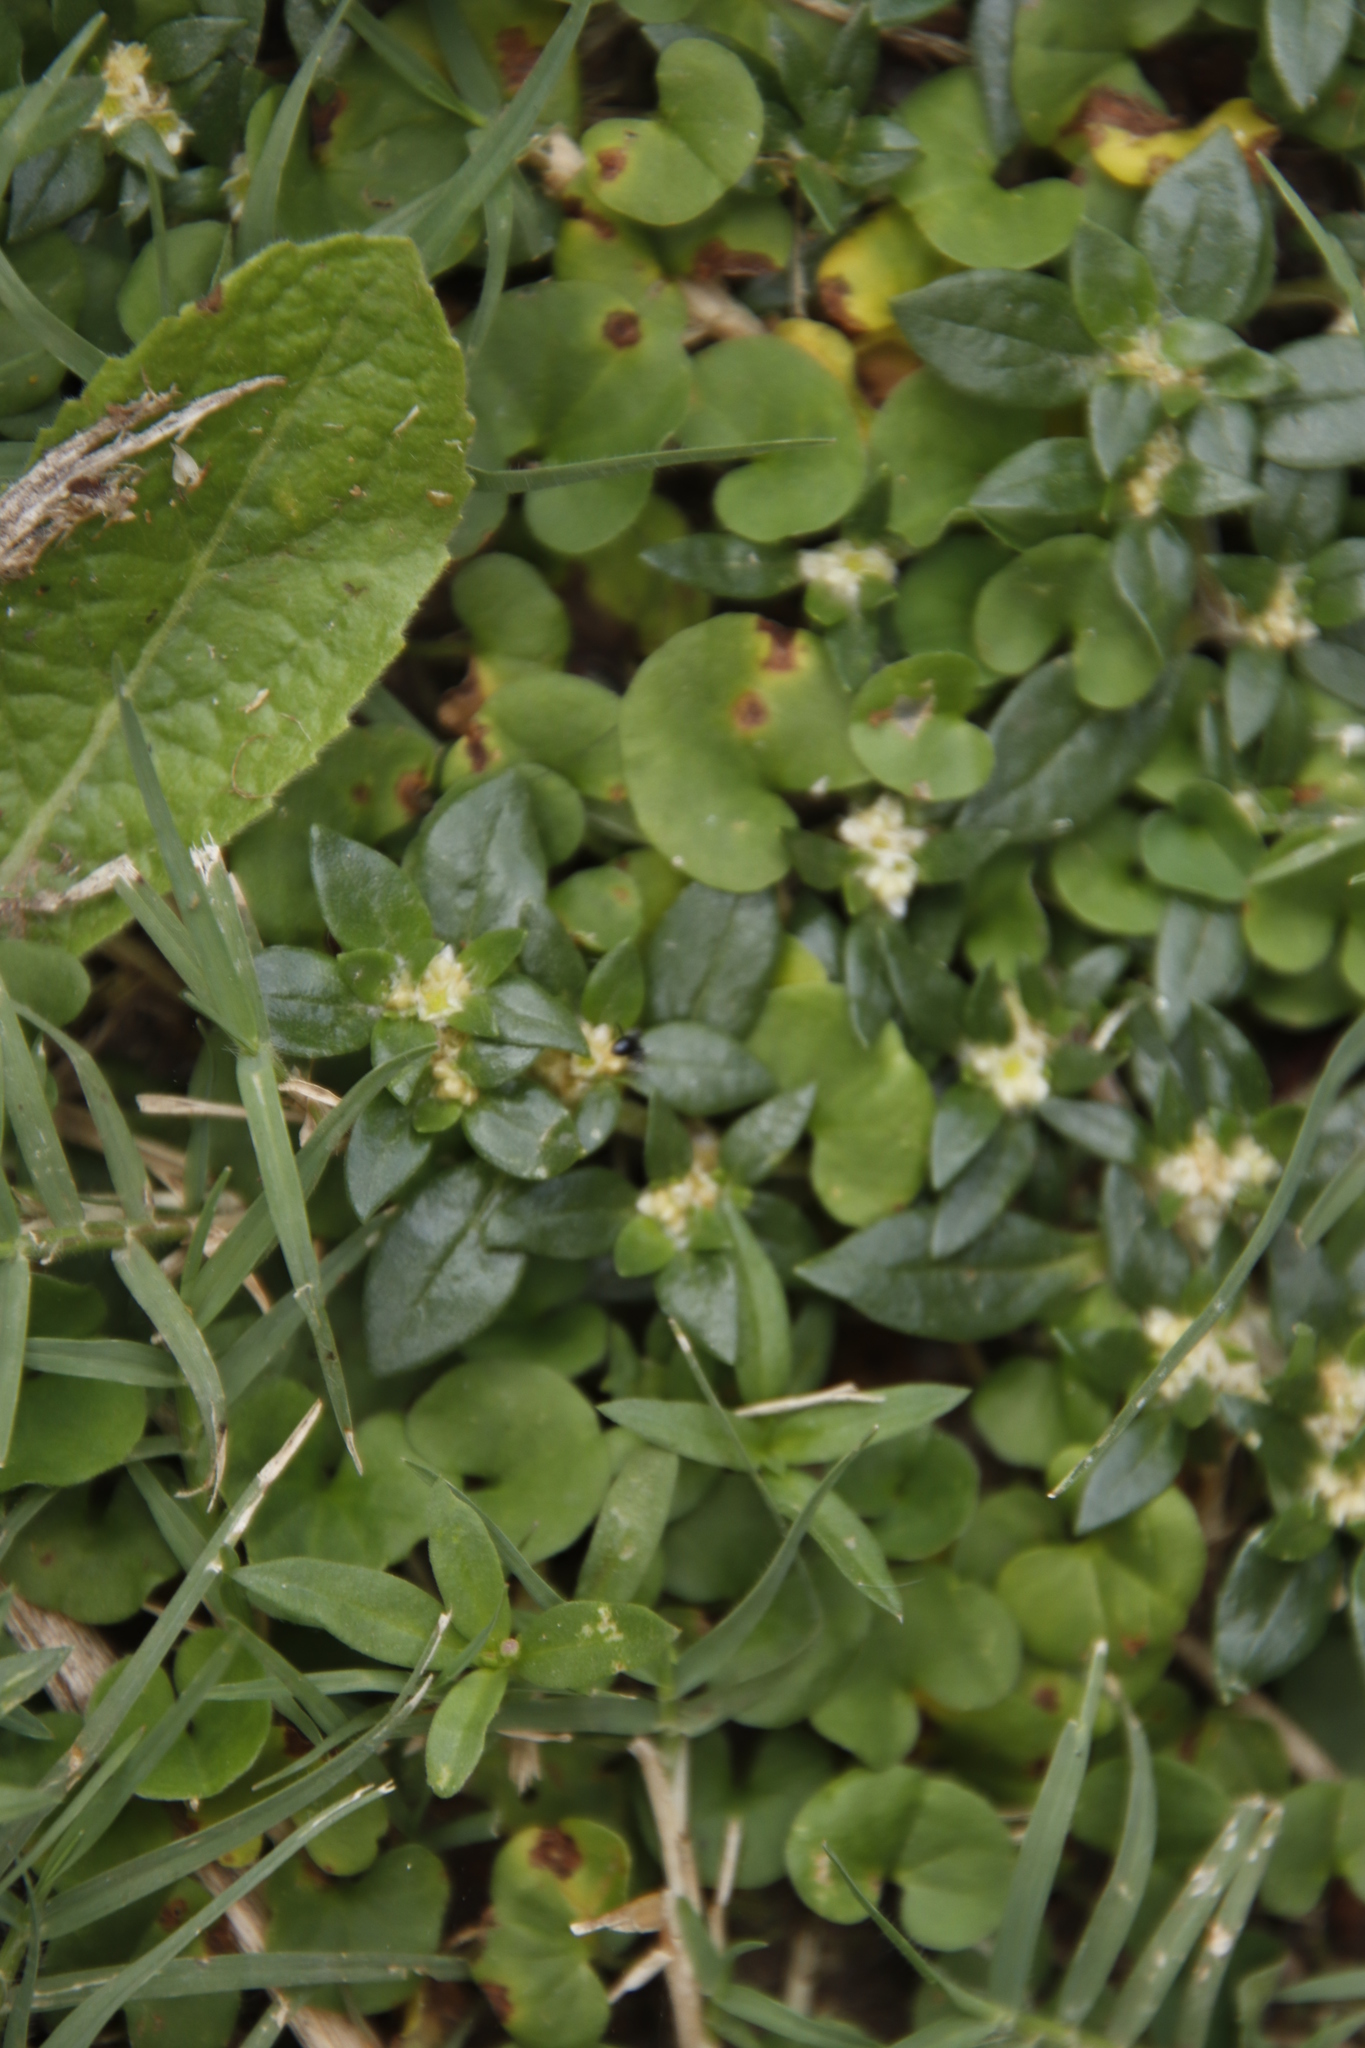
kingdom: Plantae
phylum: Tracheophyta
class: Magnoliopsida
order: Caryophyllales
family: Amaranthaceae
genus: Guilleminea
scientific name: Guilleminea densa
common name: Small matweed
